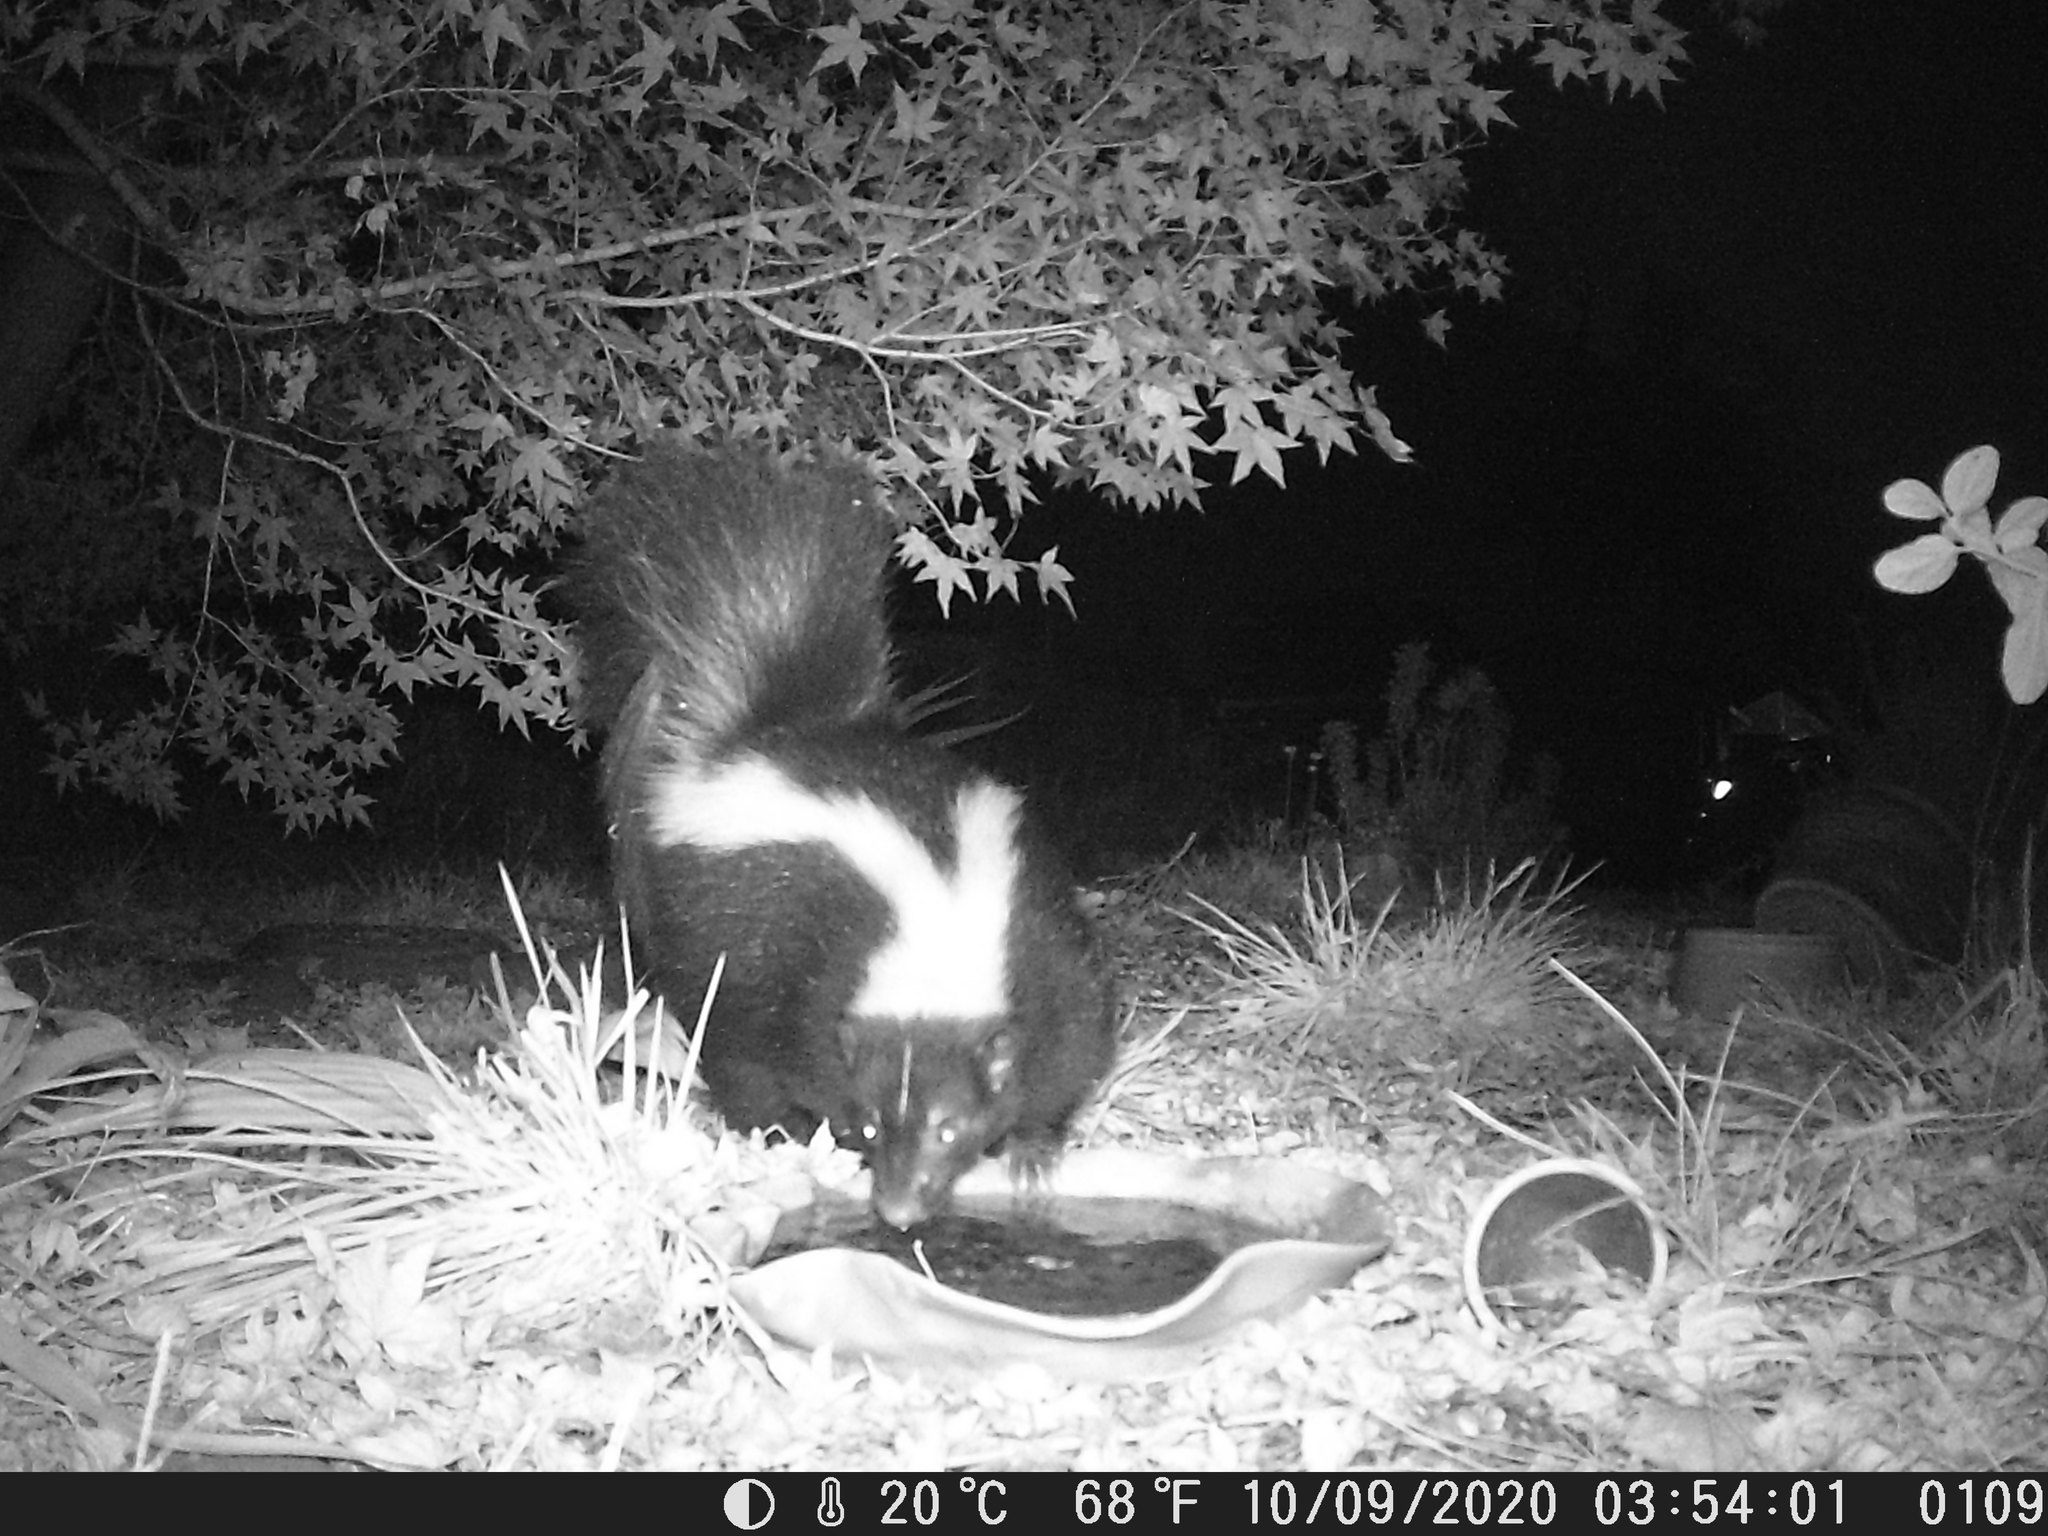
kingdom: Animalia
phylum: Chordata
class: Mammalia
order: Carnivora
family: Mephitidae
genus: Mephitis
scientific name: Mephitis mephitis
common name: Striped skunk
